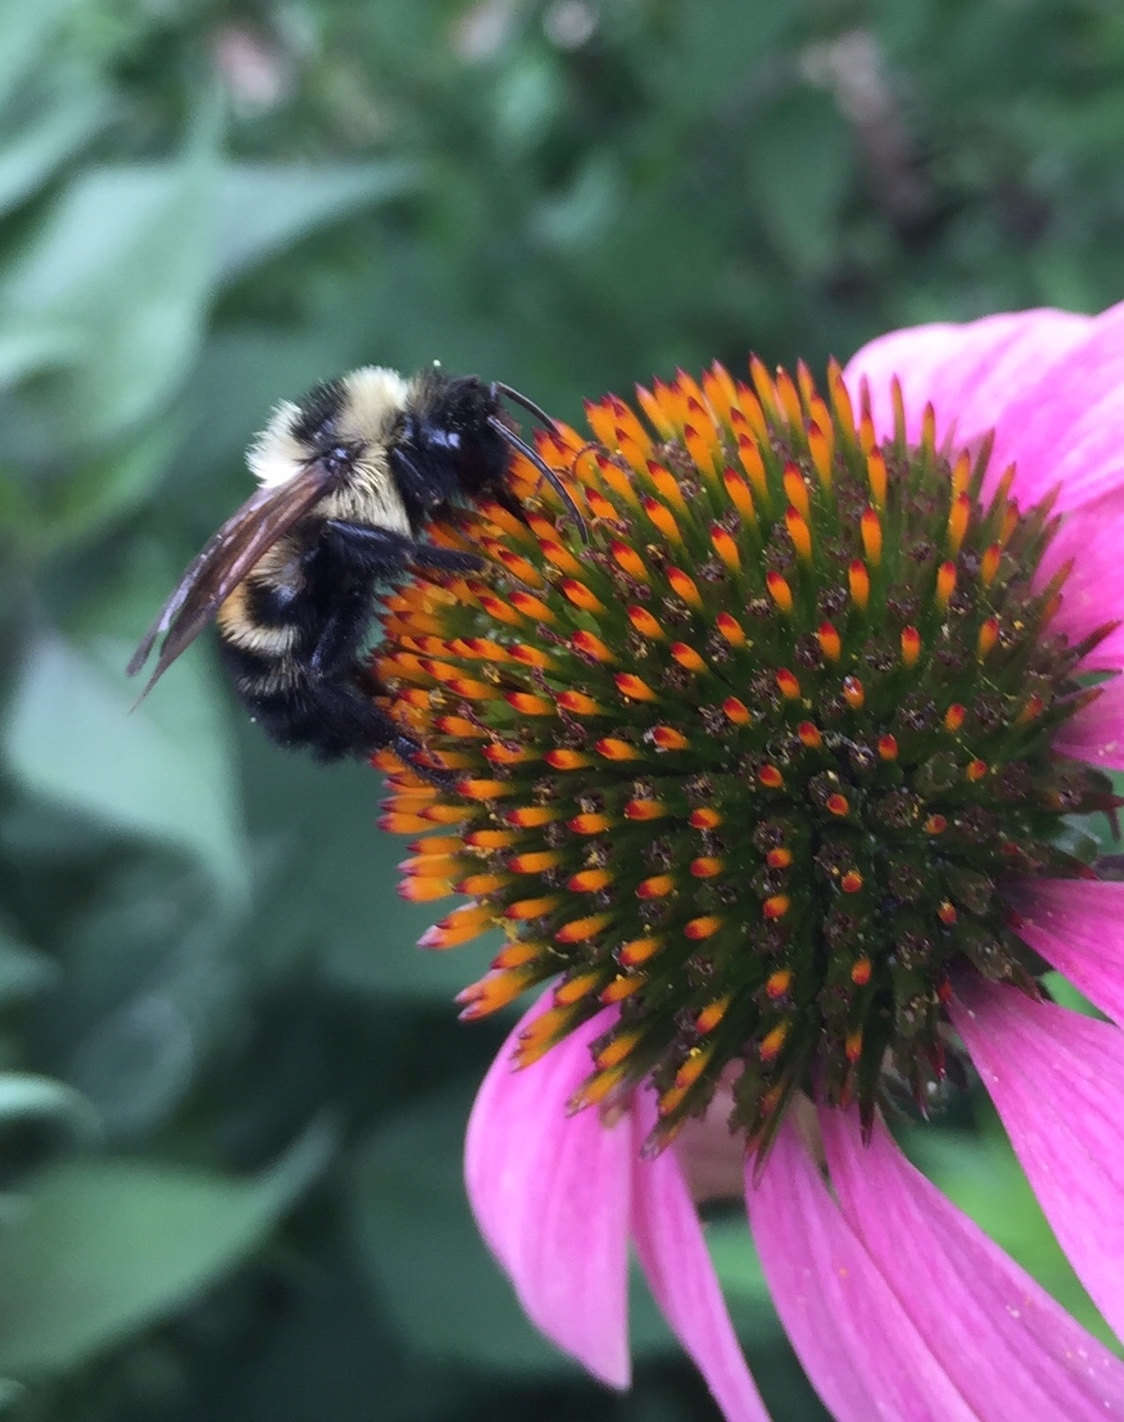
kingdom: Animalia
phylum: Arthropoda
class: Insecta
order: Hymenoptera
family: Apidae
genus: Bombus
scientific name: Bombus citrinus
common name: Lemon cuckoo bumble bee
